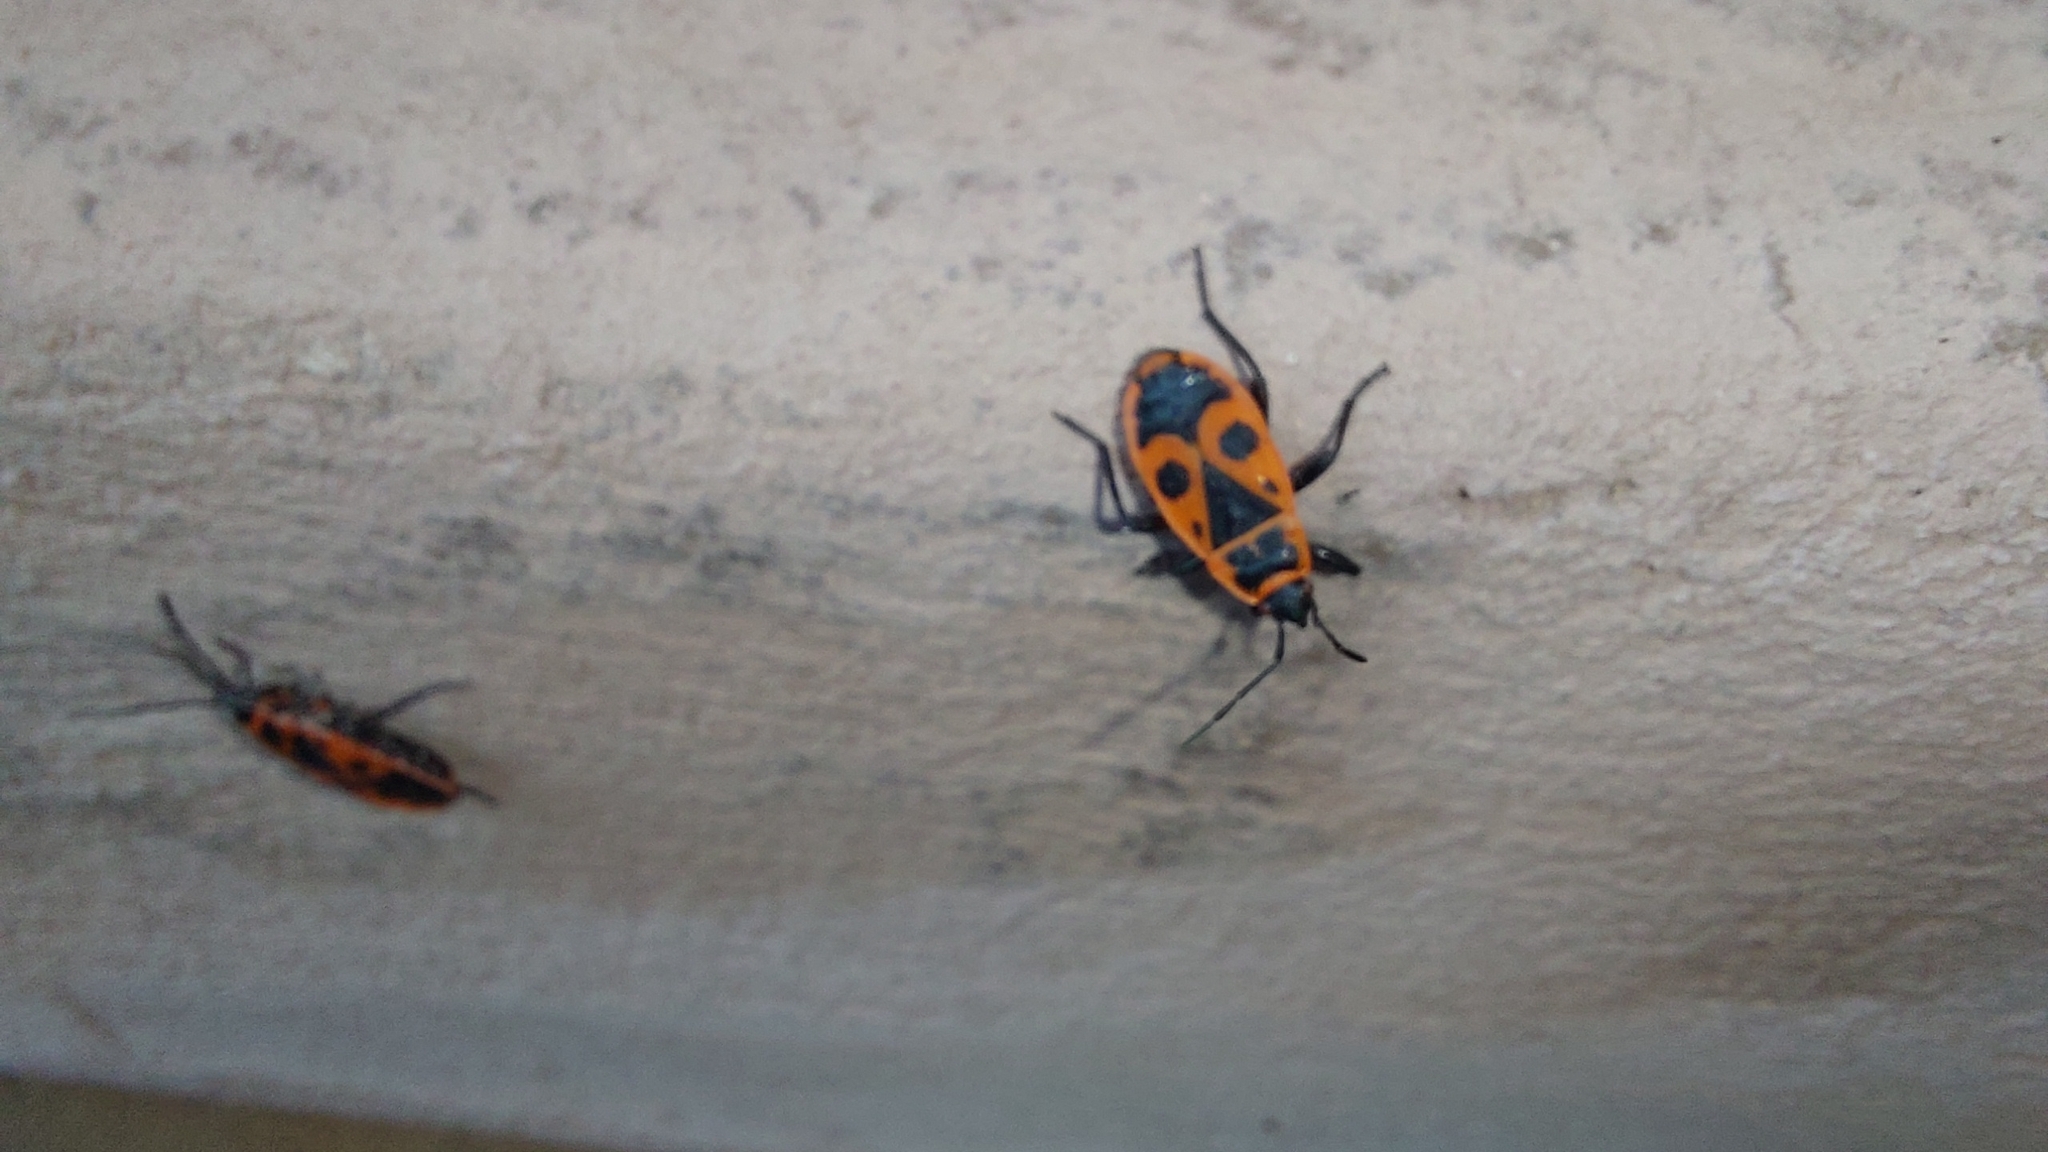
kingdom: Animalia
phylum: Arthropoda
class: Insecta
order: Hemiptera
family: Pyrrhocoridae
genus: Pyrrhocoris
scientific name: Pyrrhocoris apterus
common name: Firebug
